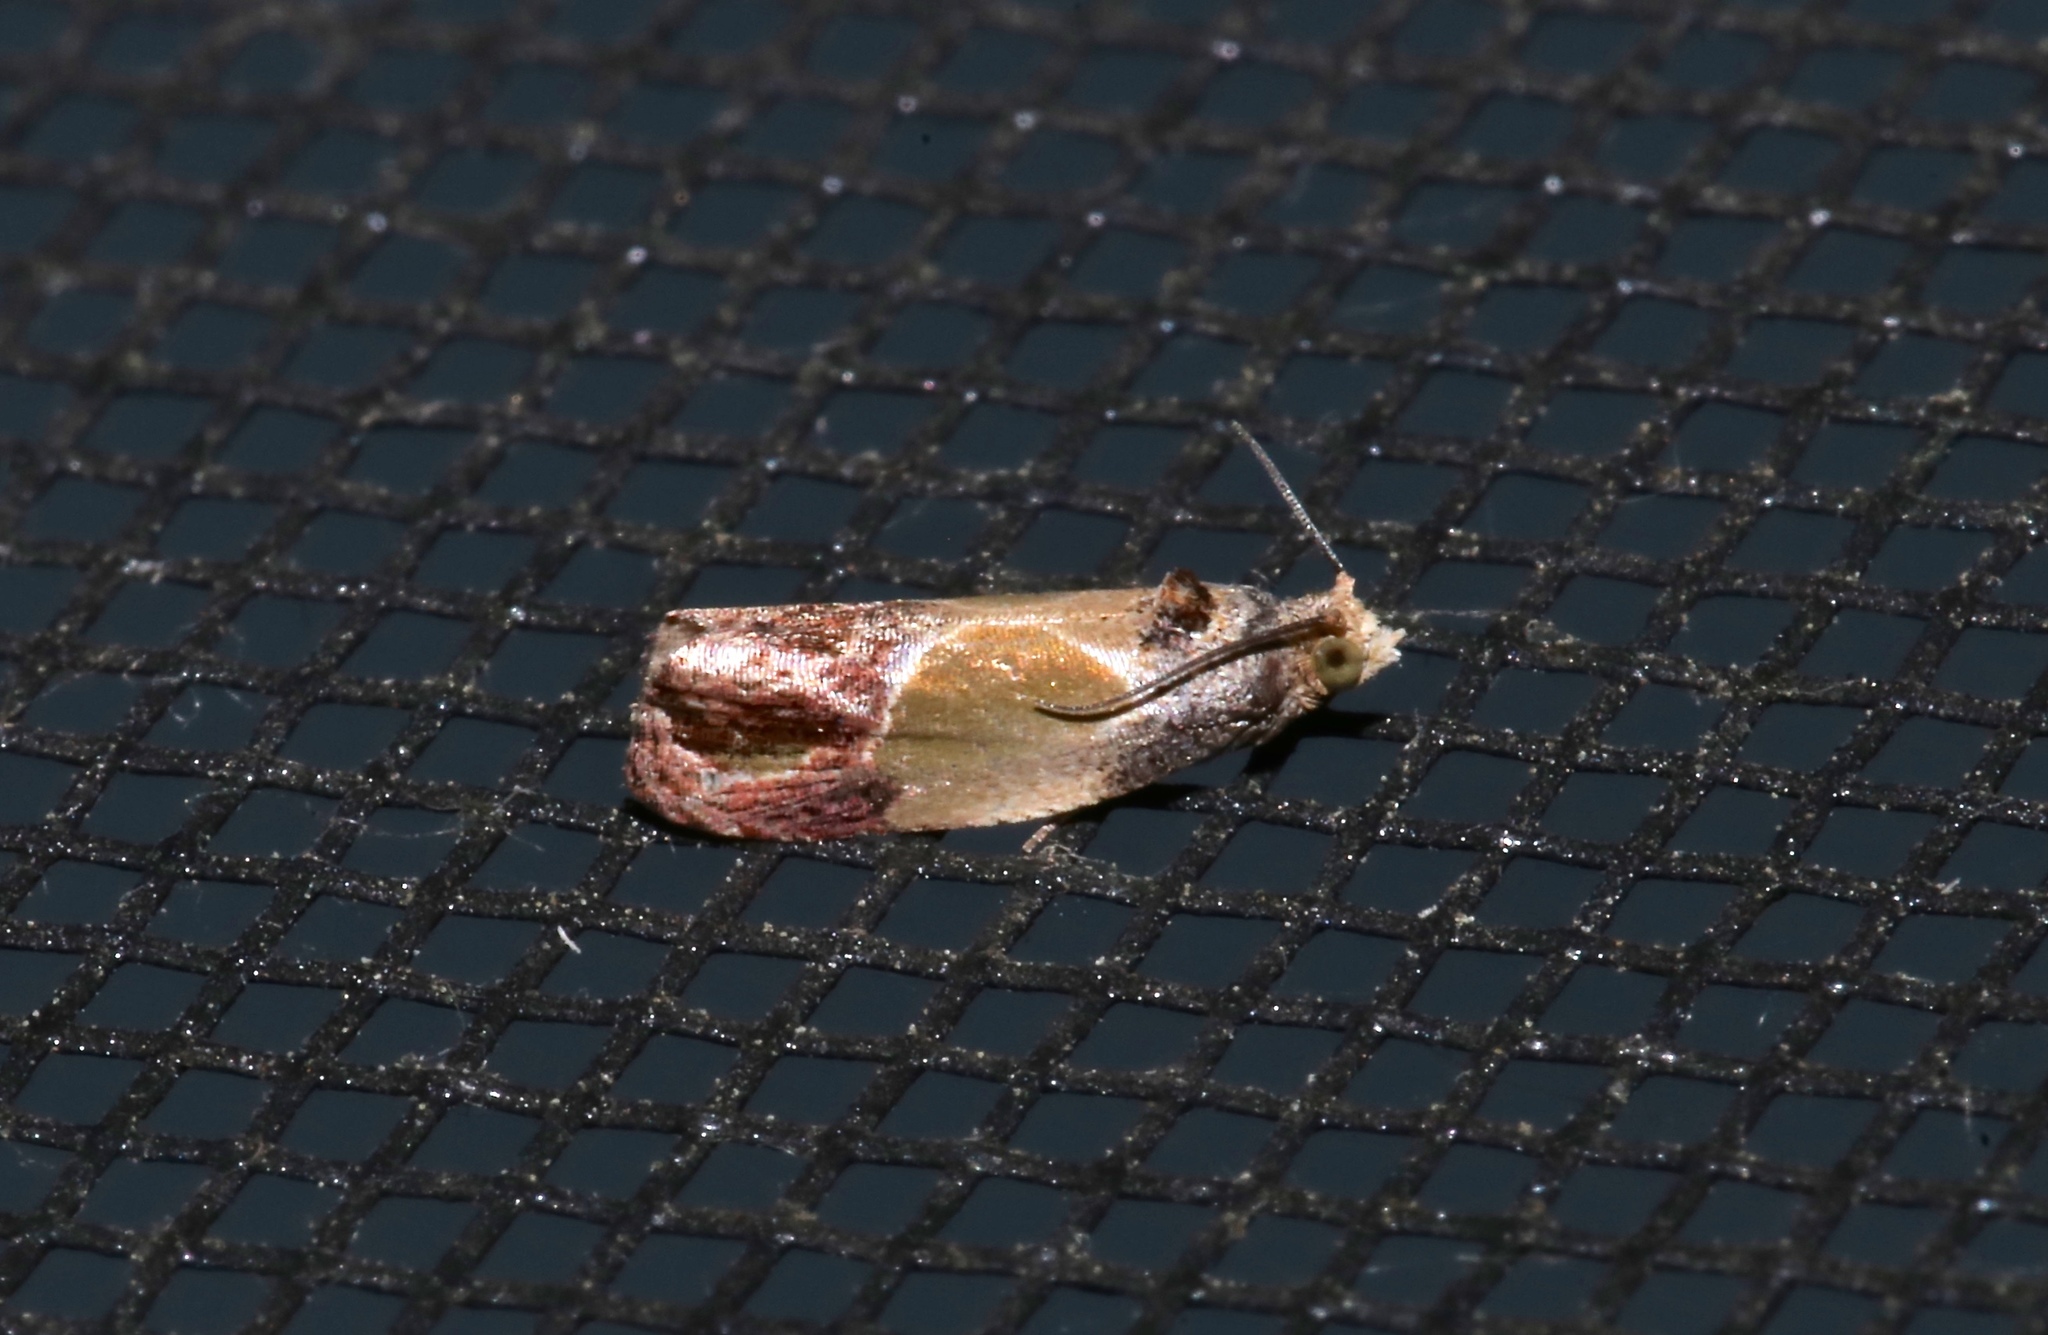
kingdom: Animalia
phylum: Arthropoda
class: Insecta
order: Lepidoptera
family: Tortricidae
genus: Eumarozia
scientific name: Eumarozia malachitana
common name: Sculptured moth
